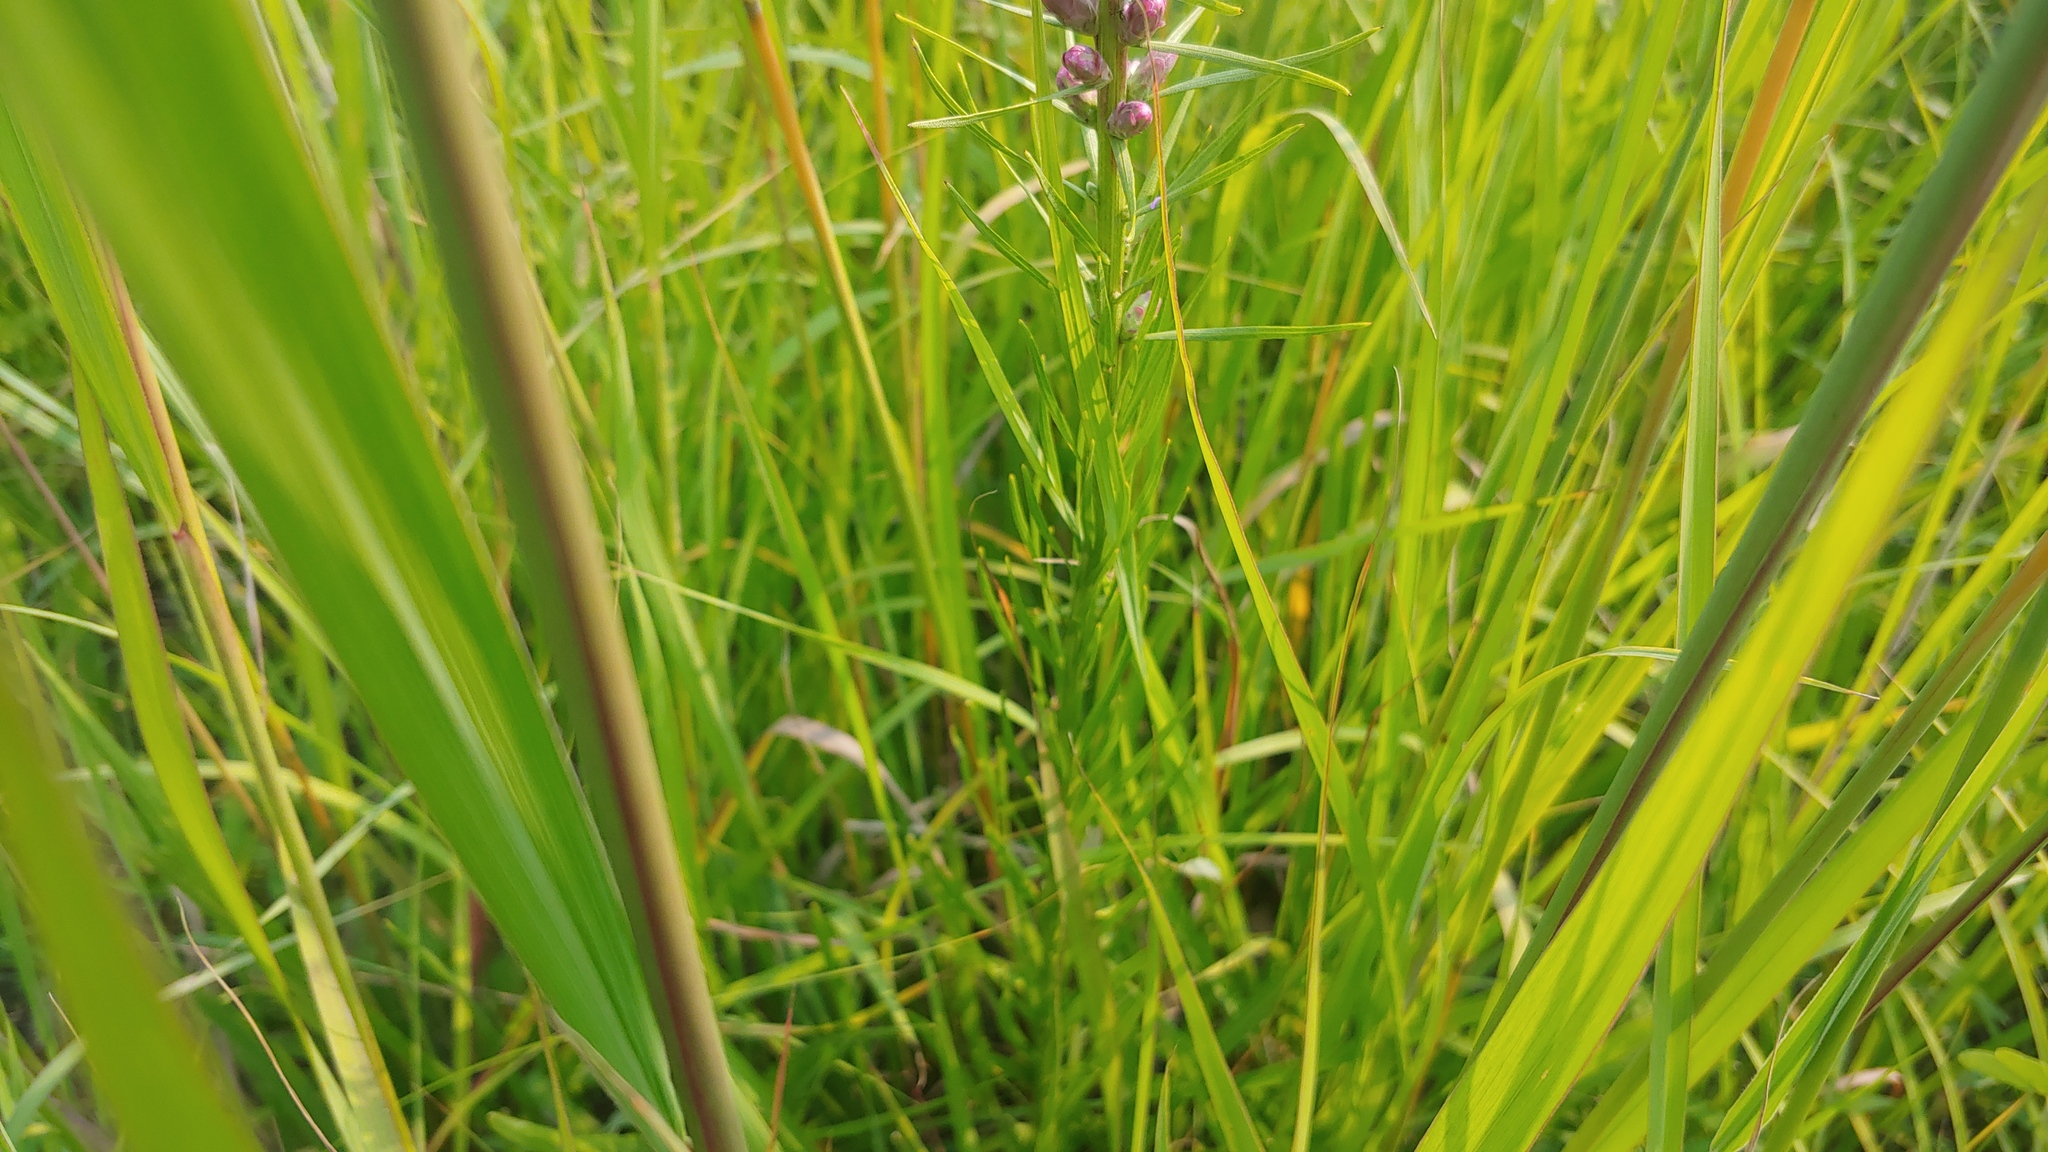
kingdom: Plantae
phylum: Tracheophyta
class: Magnoliopsida
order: Asterales
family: Asteraceae
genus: Liatris
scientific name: Liatris spicata
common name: Florist gayfeather
